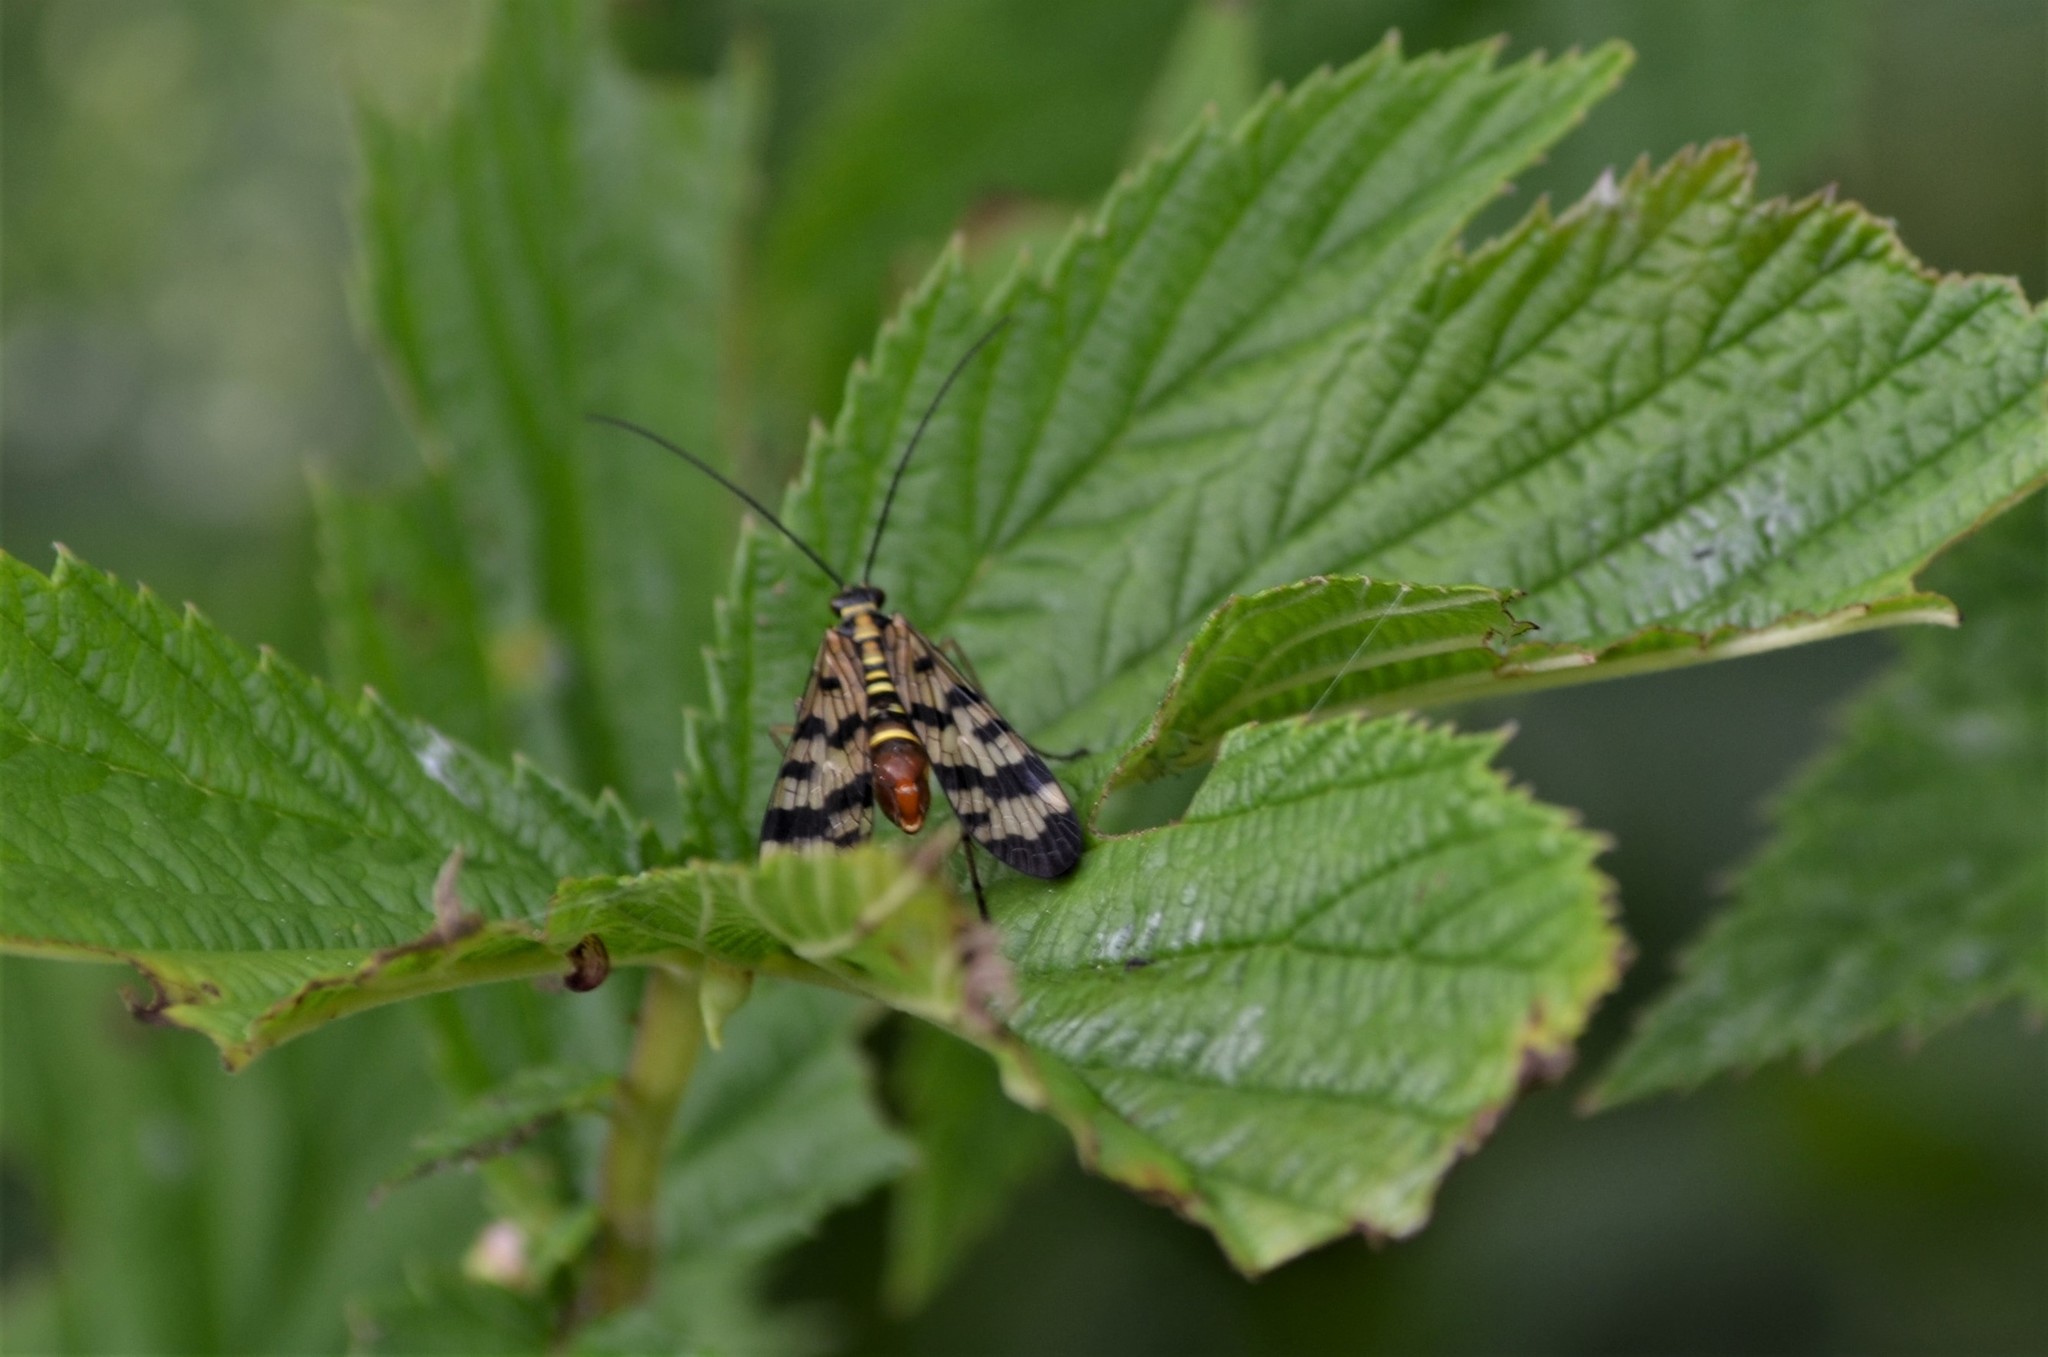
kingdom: Animalia
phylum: Arthropoda
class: Insecta
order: Mecoptera
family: Panorpidae
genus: Panorpa
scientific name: Panorpa communis
